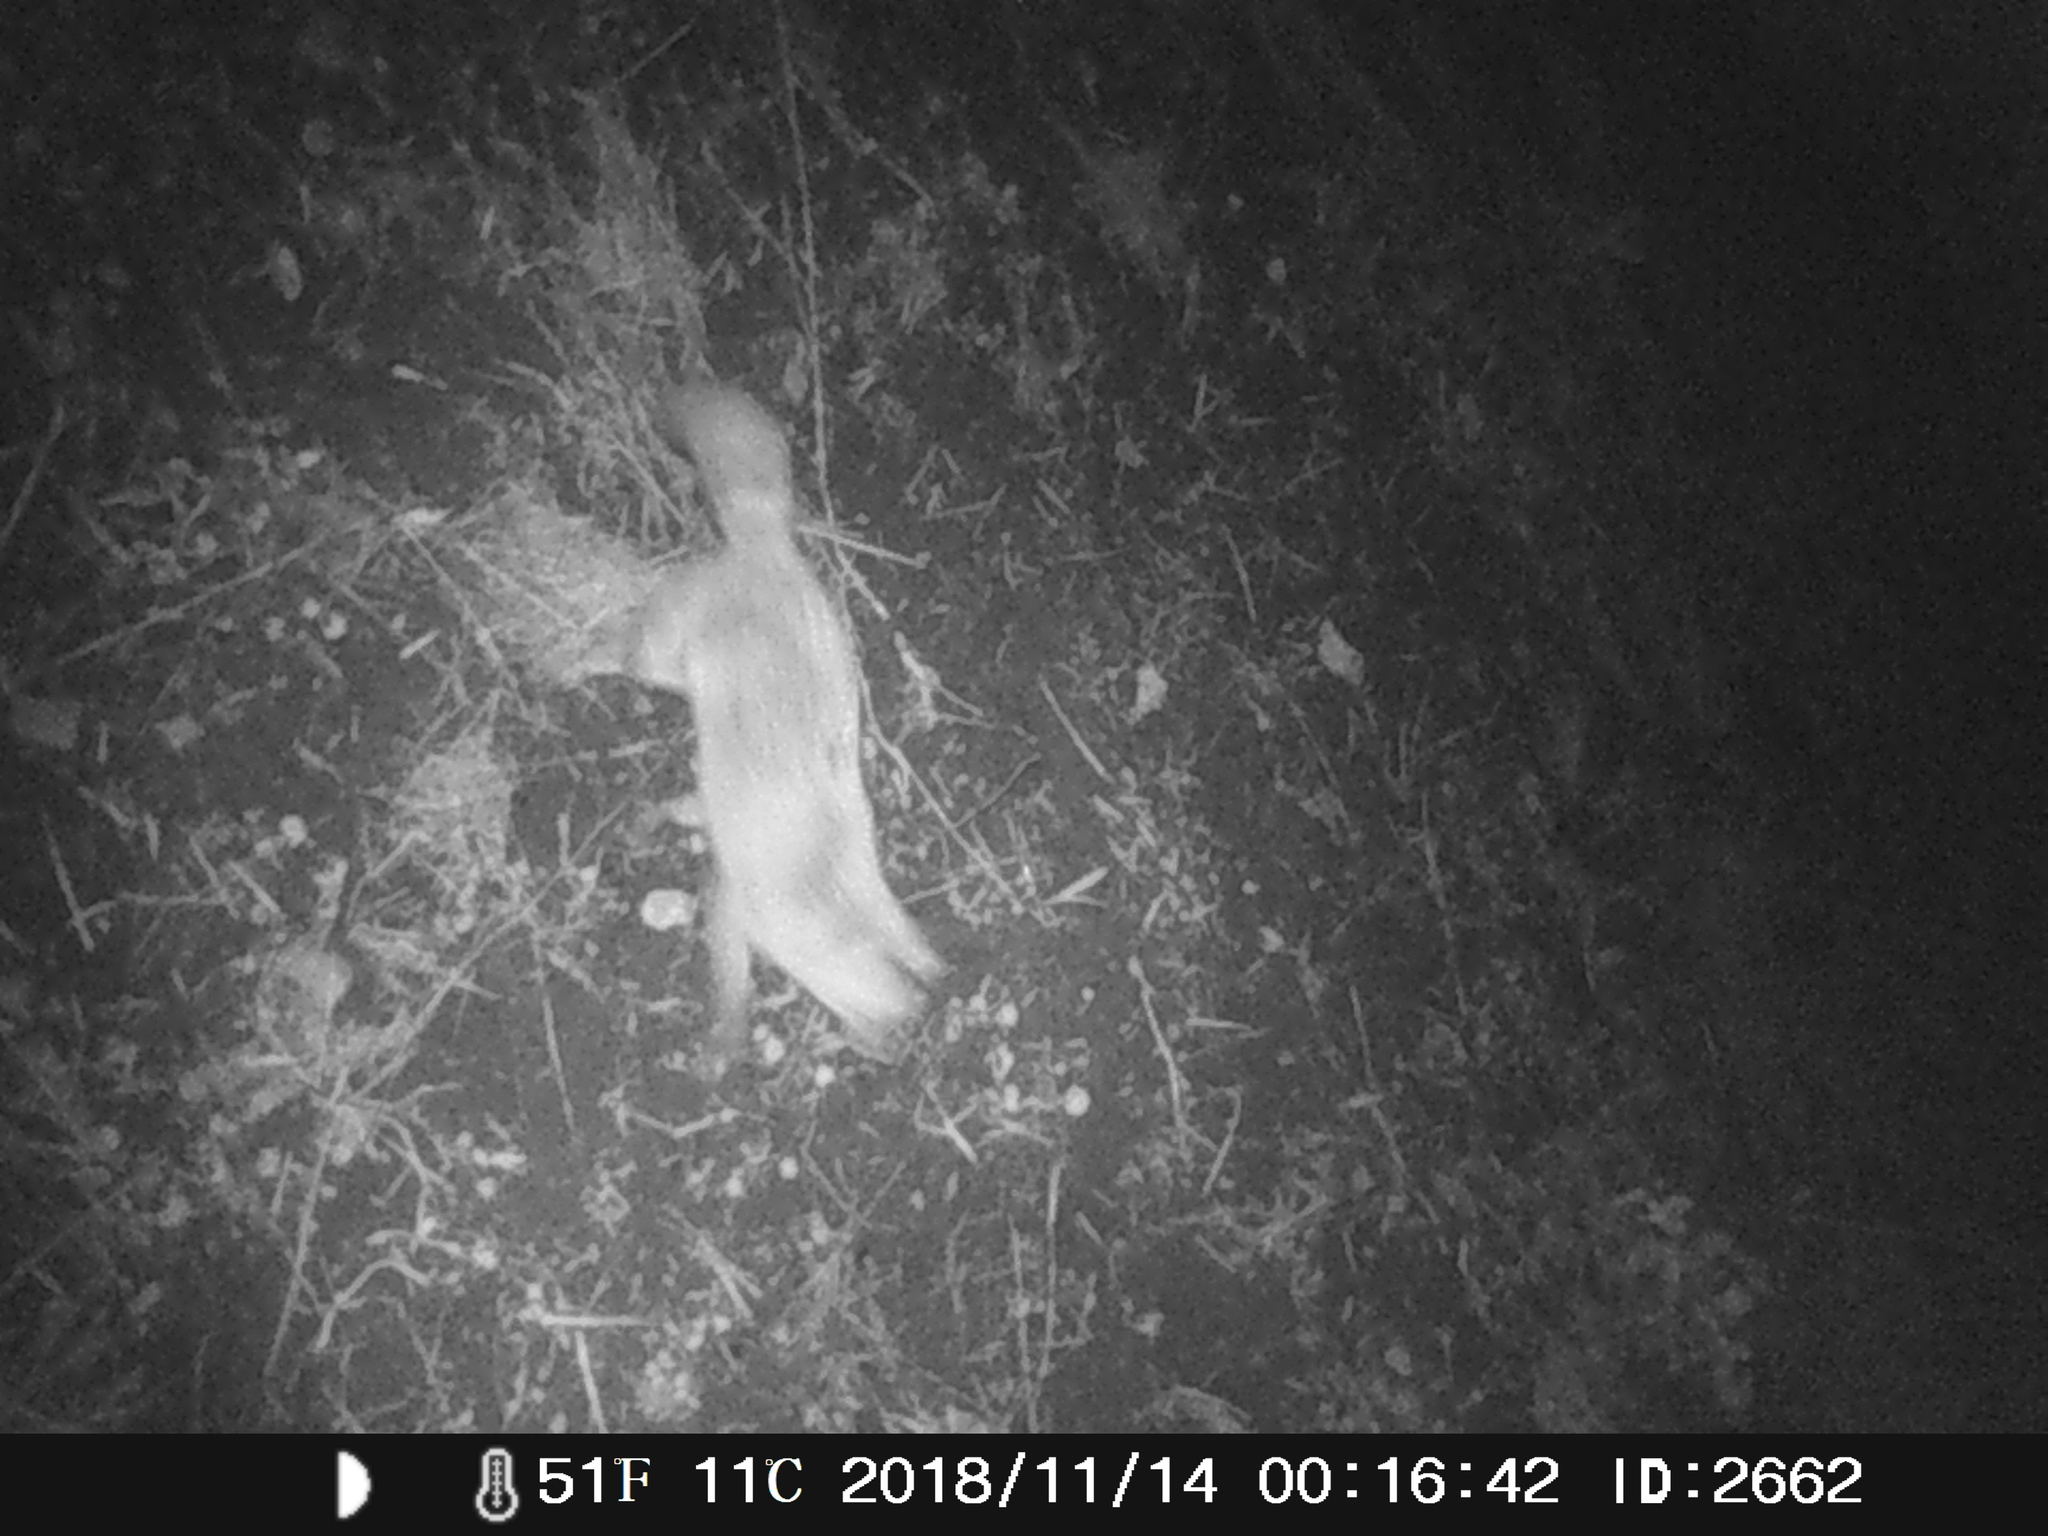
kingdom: Animalia
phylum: Chordata
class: Mammalia
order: Carnivora
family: Canidae
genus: Vulpes
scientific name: Vulpes vulpes
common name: Red fox
